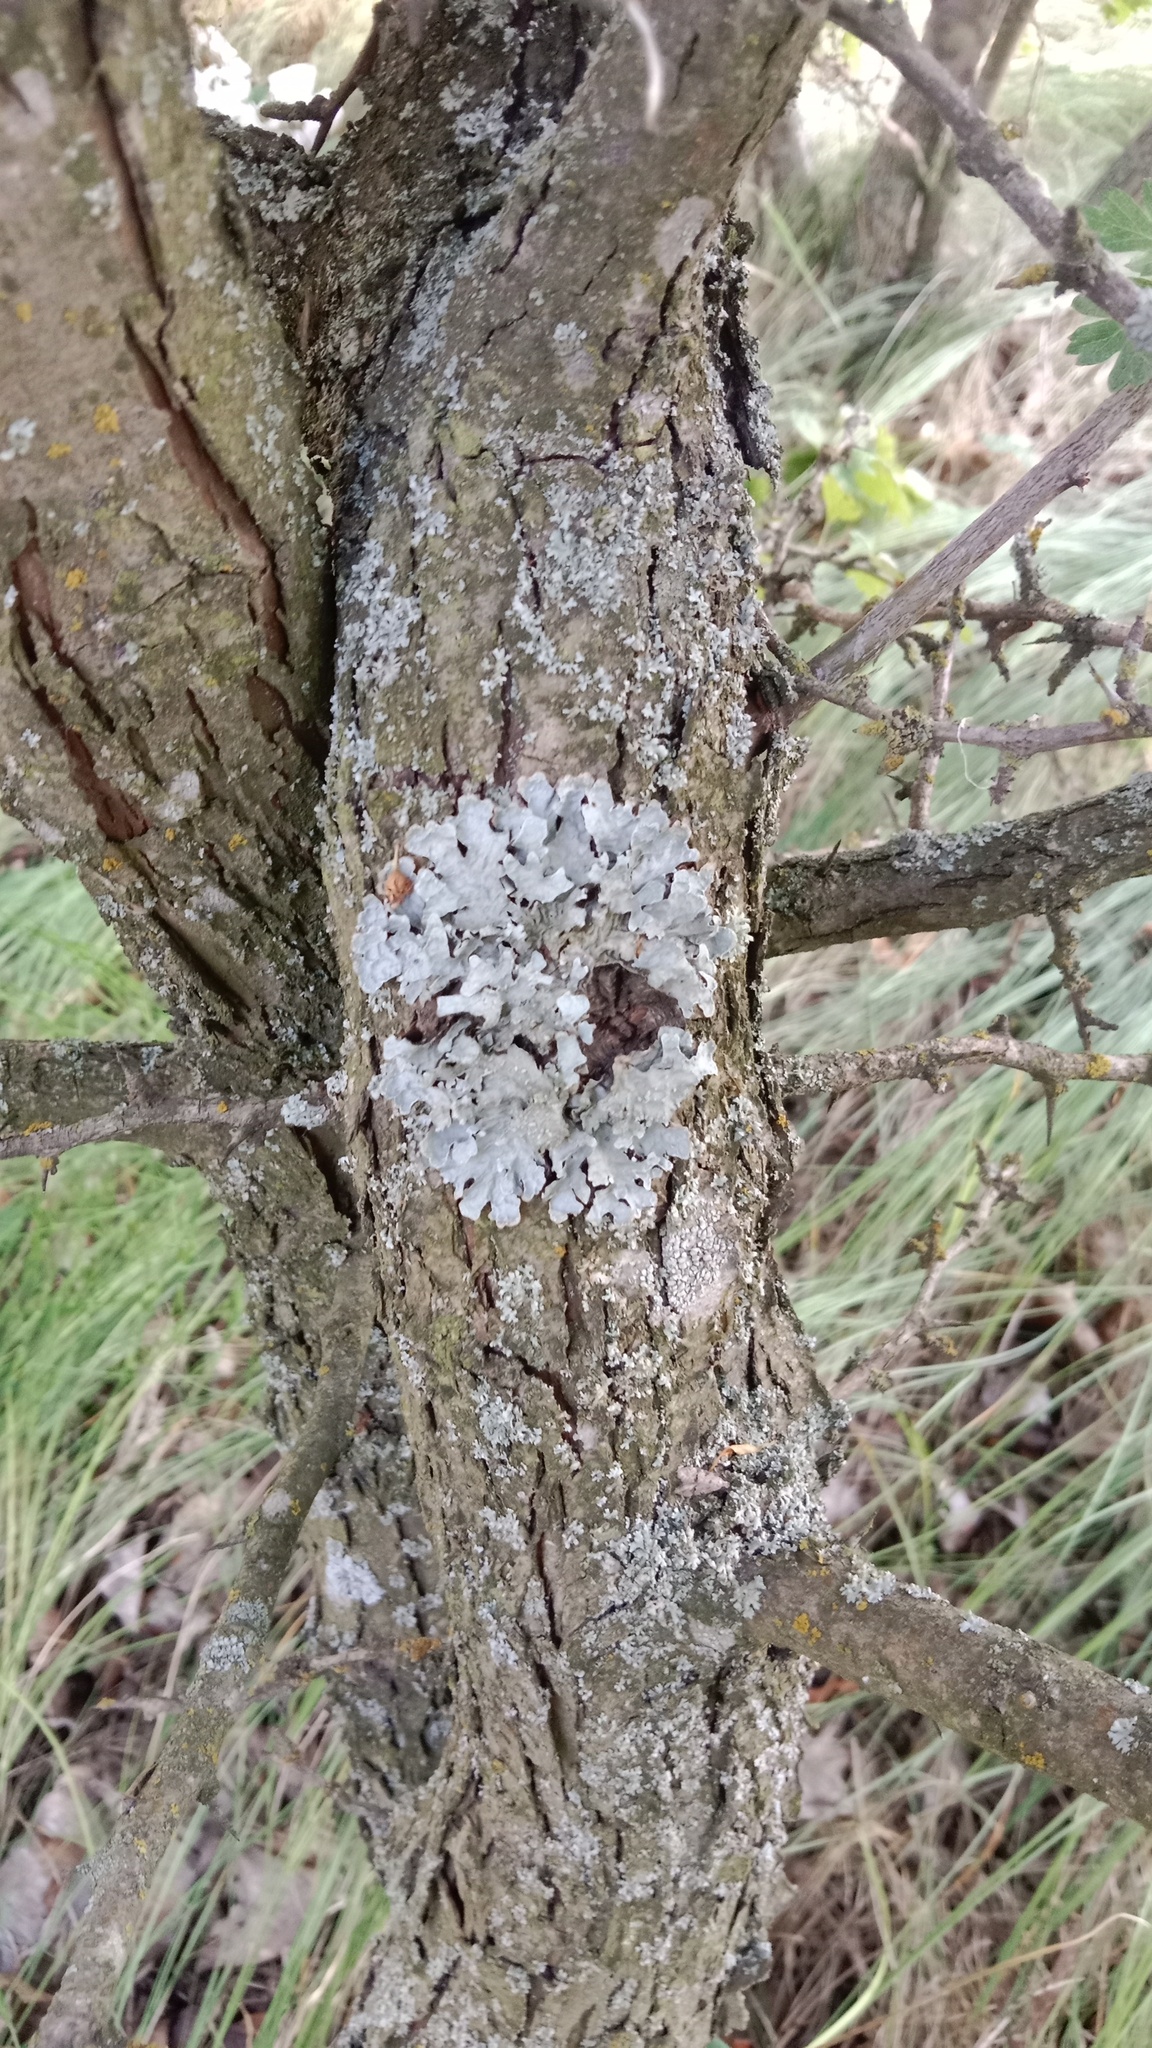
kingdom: Fungi
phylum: Ascomycota
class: Lecanoromycetes
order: Lecanorales
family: Parmeliaceae
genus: Parmelia
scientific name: Parmelia sulcata
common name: Netted shield lichen
